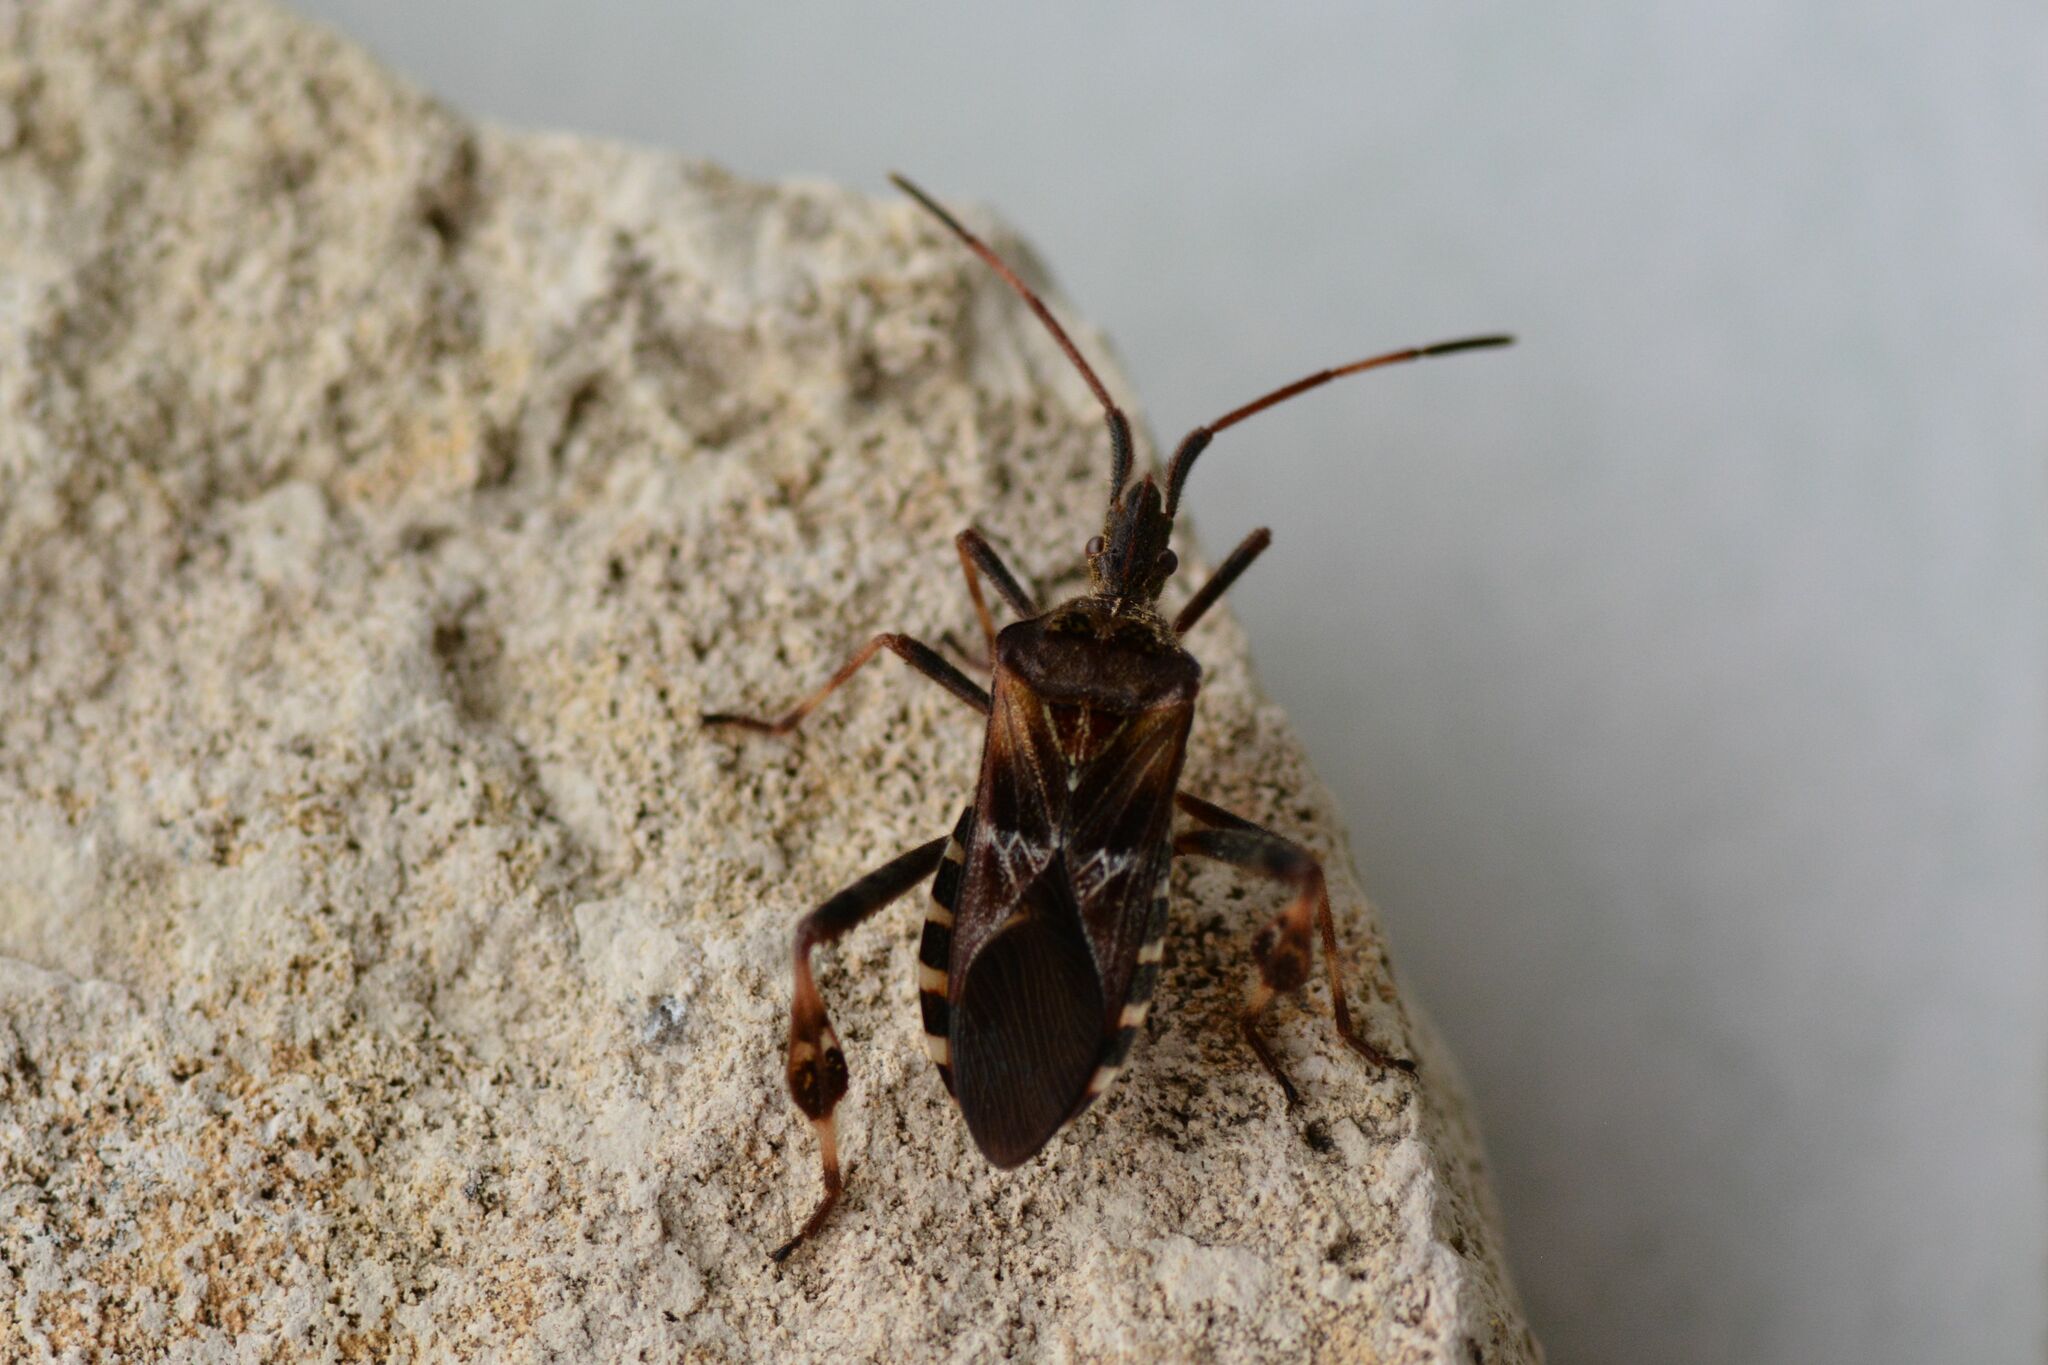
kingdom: Animalia
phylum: Arthropoda
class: Insecta
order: Hemiptera
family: Coreidae
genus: Leptoglossus
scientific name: Leptoglossus occidentalis
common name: Western conifer-seed bug
